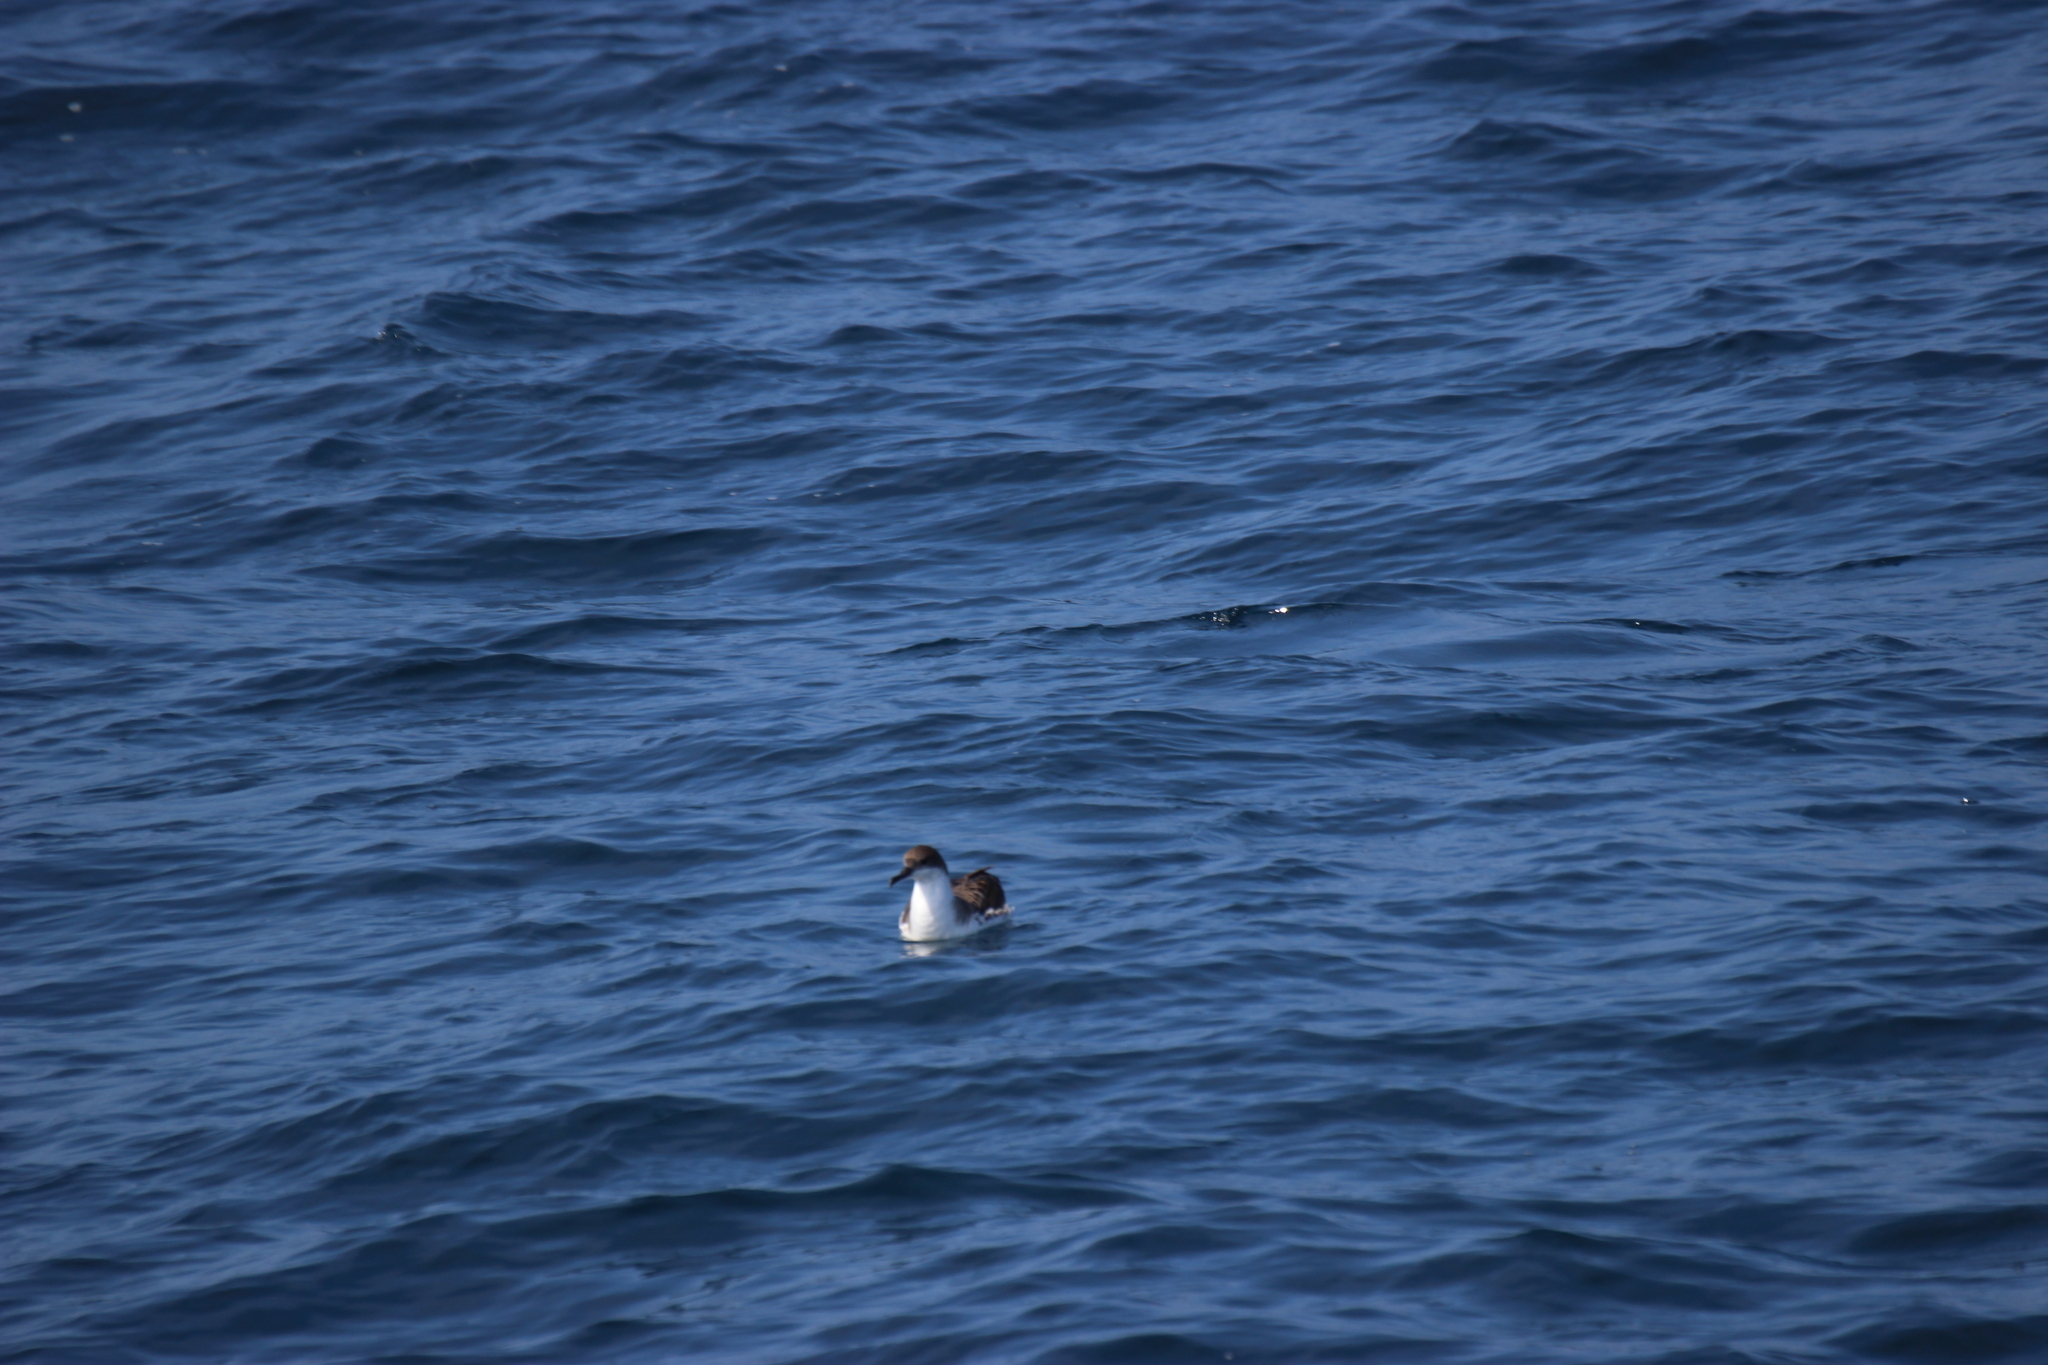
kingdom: Animalia
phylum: Chordata
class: Aves
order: Procellariiformes
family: Procellariidae
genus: Puffinus
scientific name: Puffinus gravis
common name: Great shearwater
